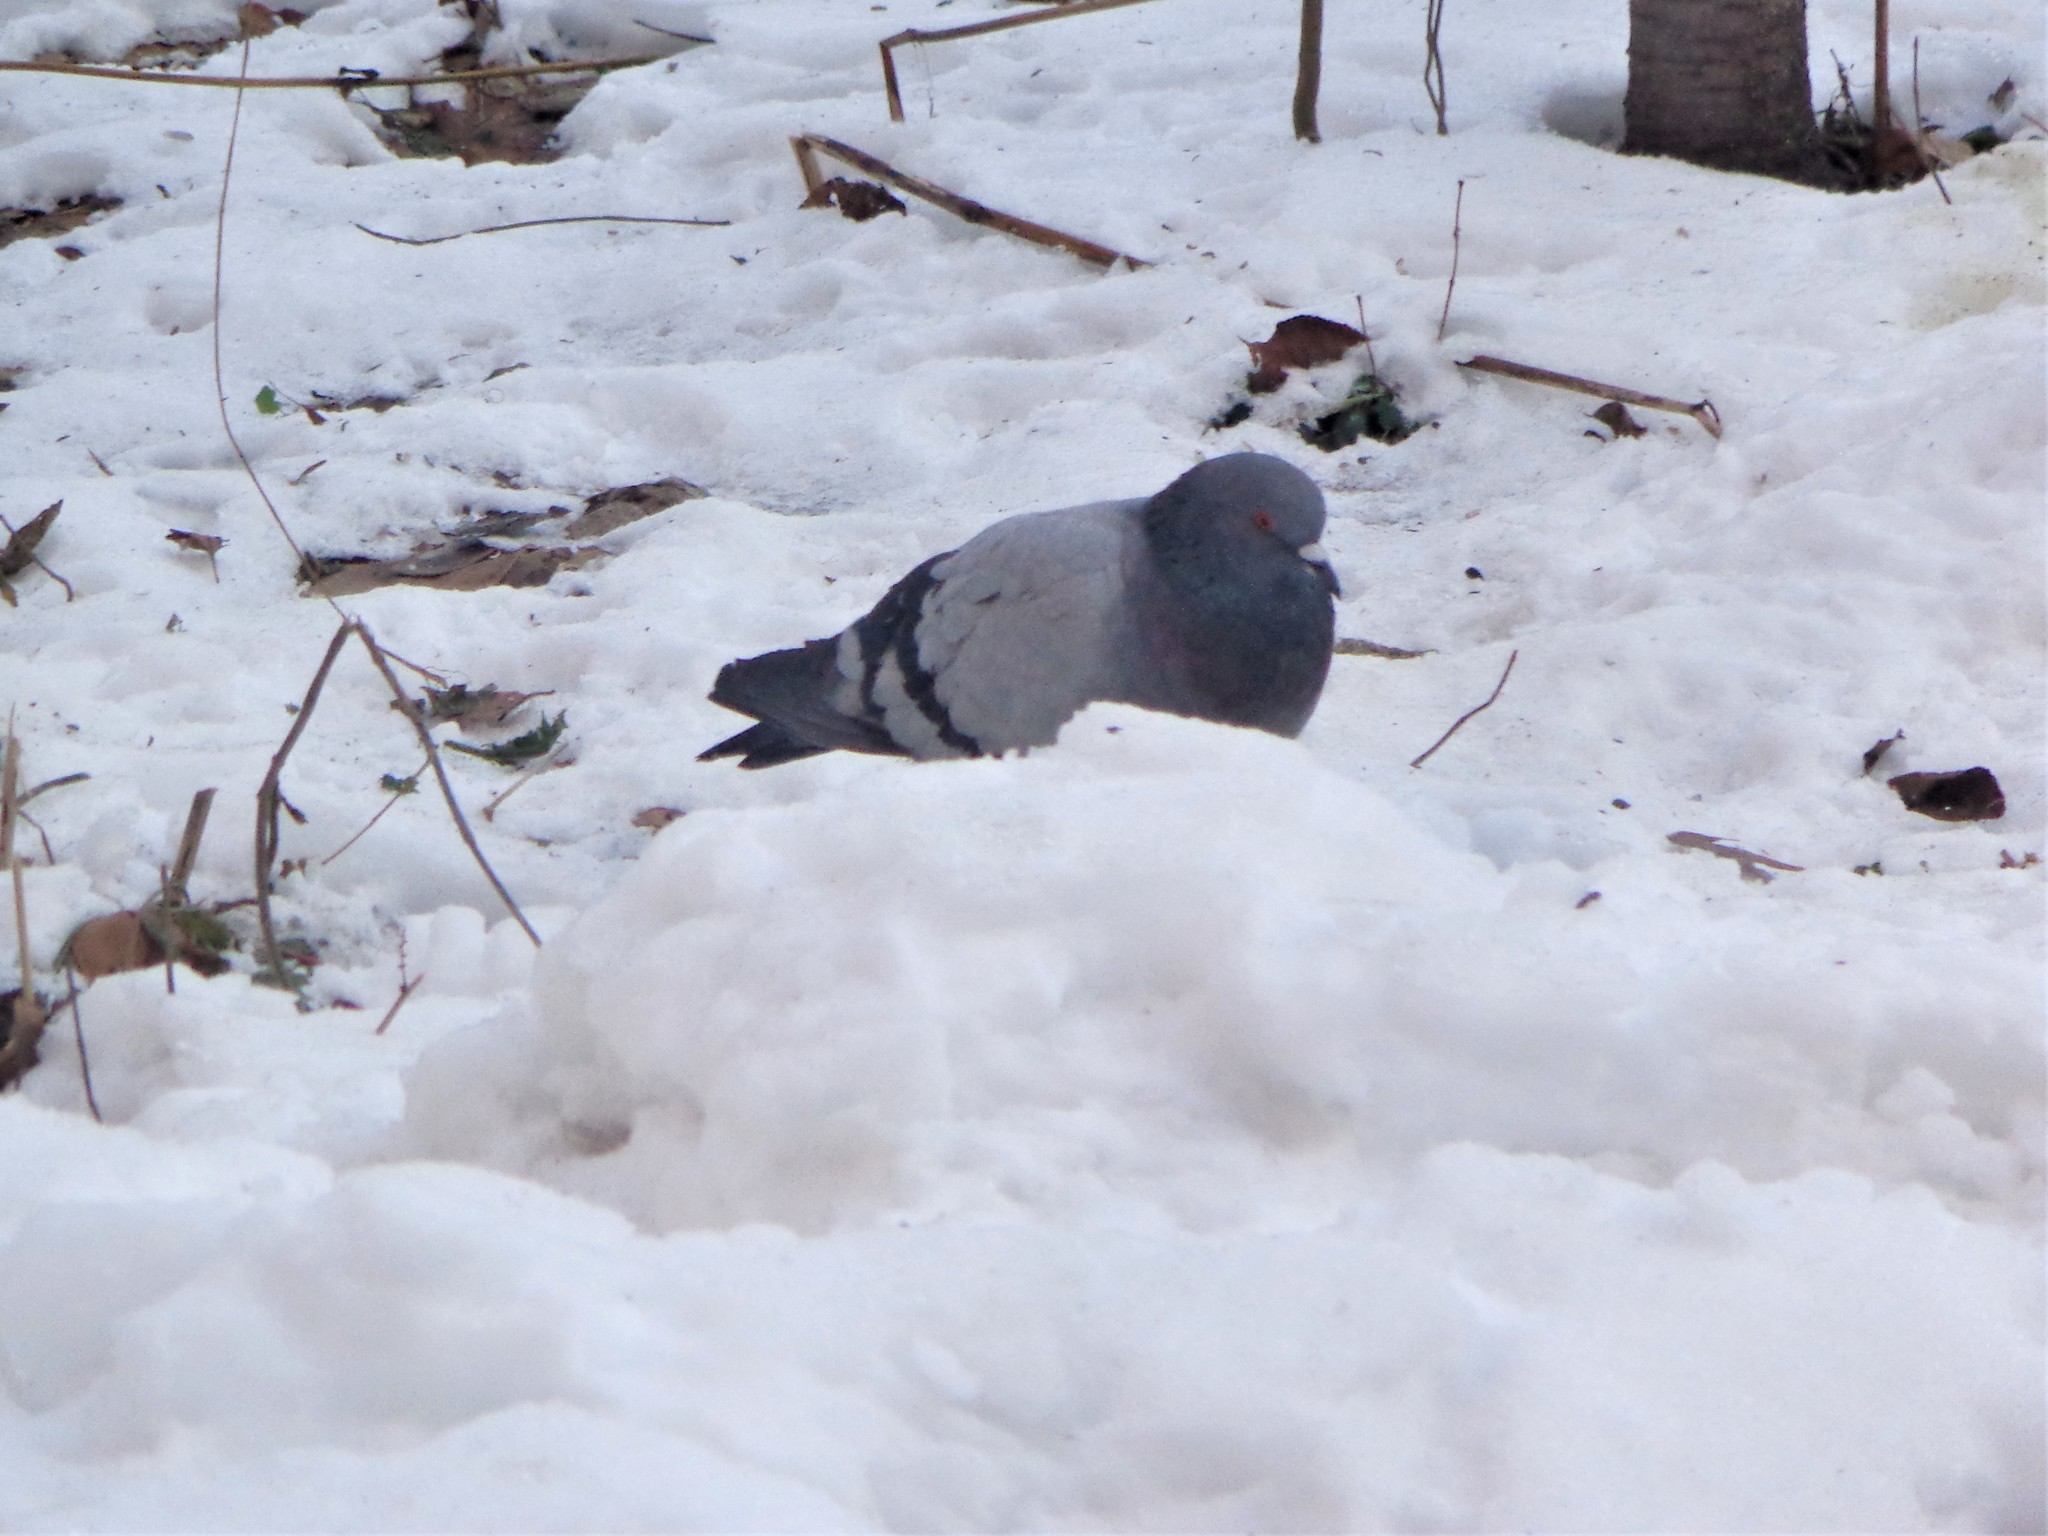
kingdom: Animalia
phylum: Chordata
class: Aves
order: Columbiformes
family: Columbidae
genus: Columba
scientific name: Columba livia
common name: Rock pigeon
